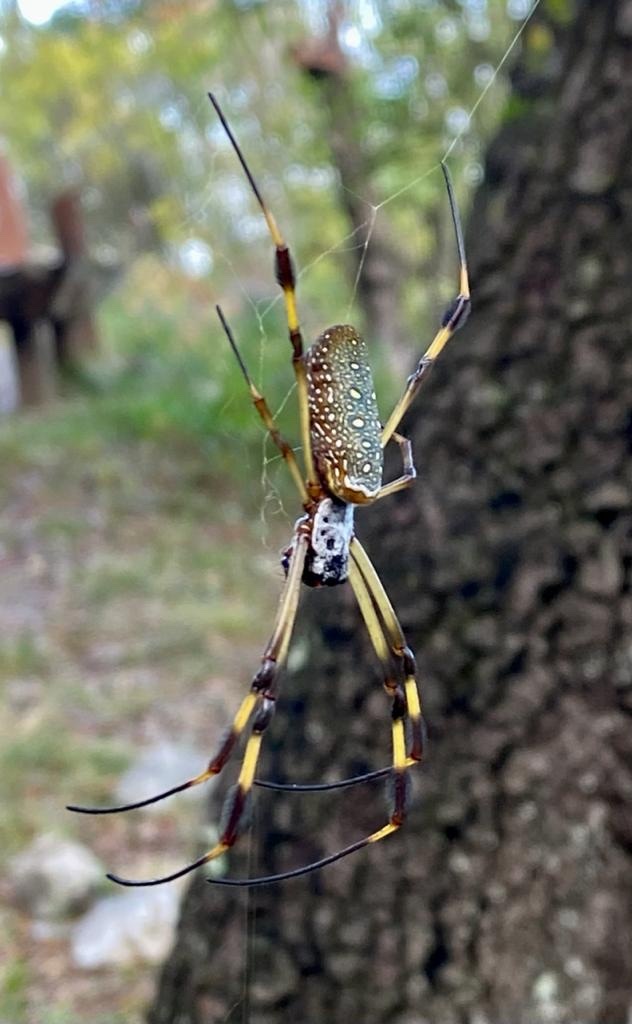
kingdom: Animalia
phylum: Arthropoda
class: Arachnida
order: Araneae
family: Araneidae
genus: Trichonephila
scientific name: Trichonephila clavipes
